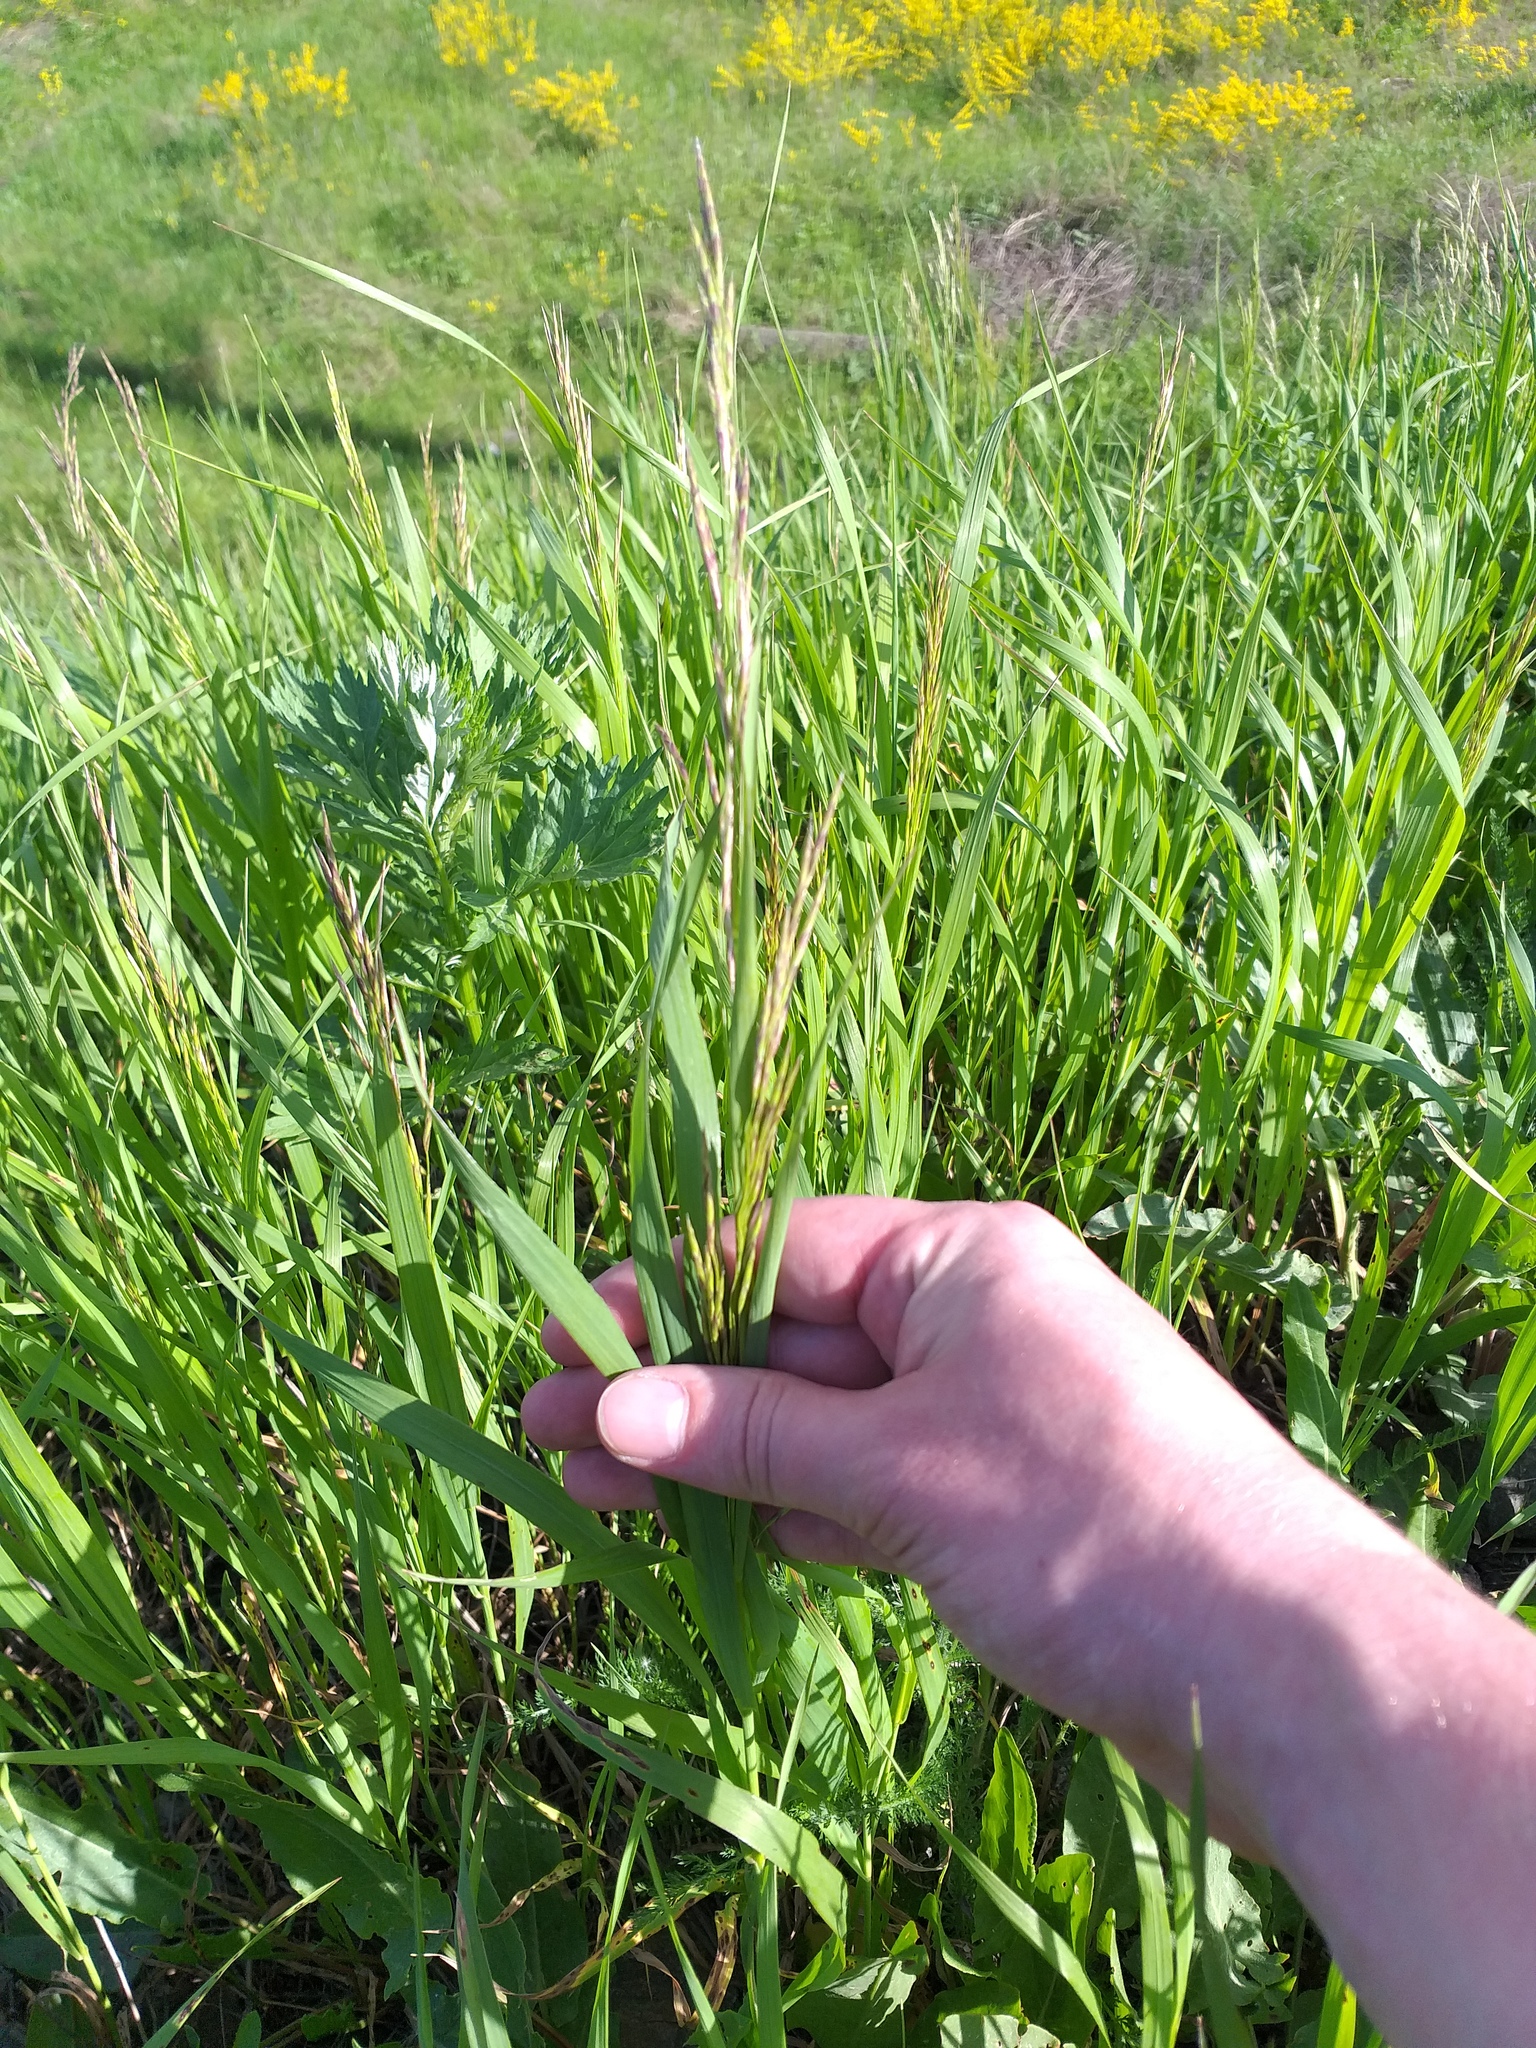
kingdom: Plantae
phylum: Tracheophyta
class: Liliopsida
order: Poales
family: Poaceae
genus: Bromus
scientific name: Bromus inermis
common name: Smooth brome
